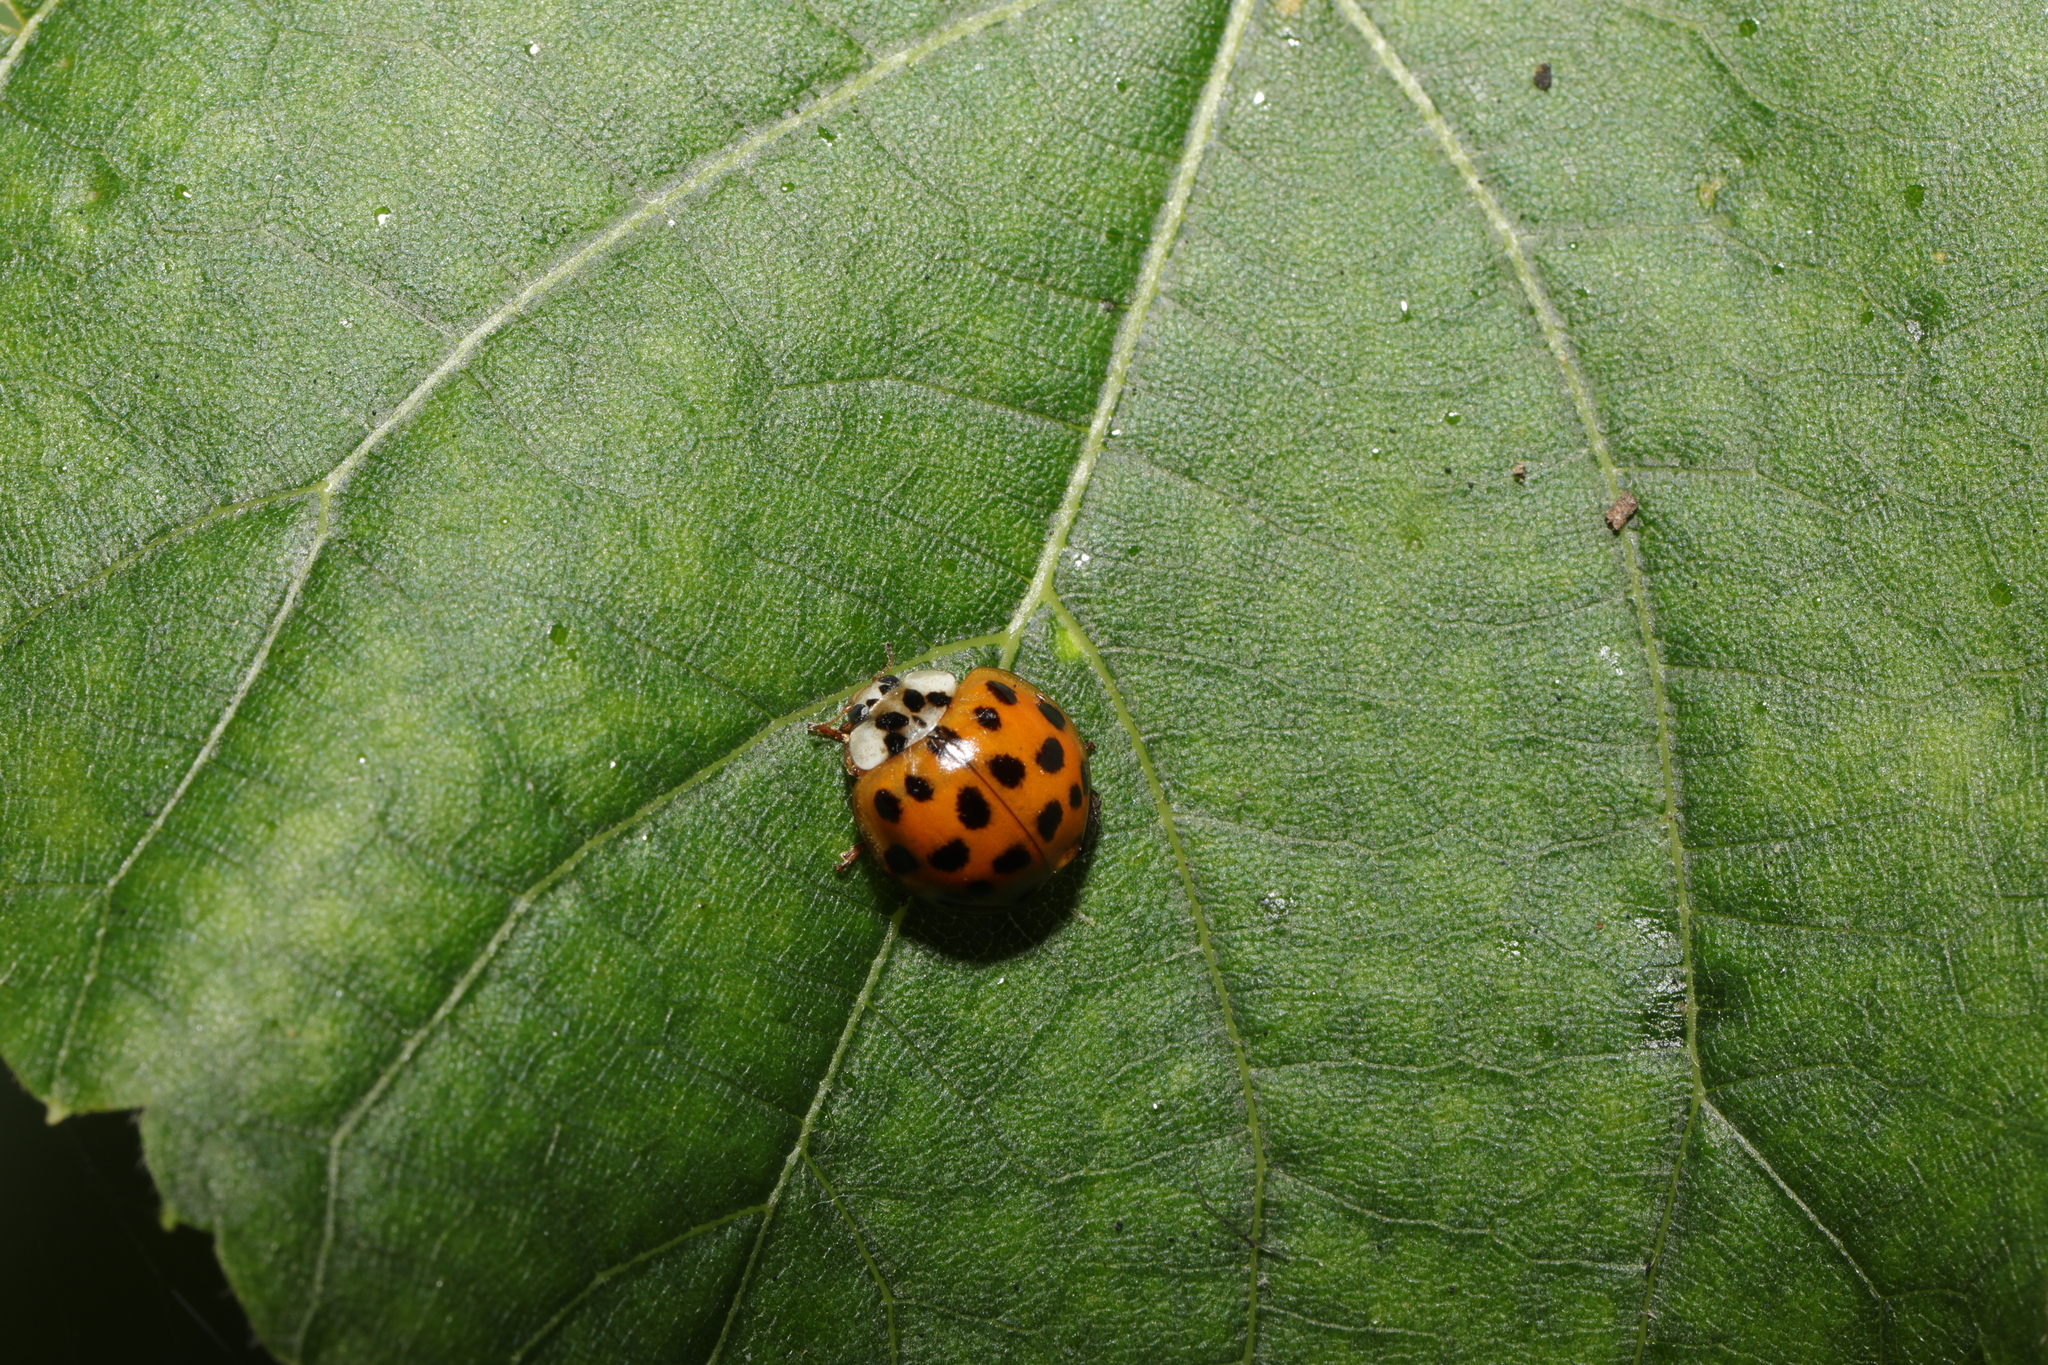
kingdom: Animalia
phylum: Arthropoda
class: Insecta
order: Coleoptera
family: Coccinellidae
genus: Harmonia
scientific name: Harmonia axyridis
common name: Harlequin ladybird
